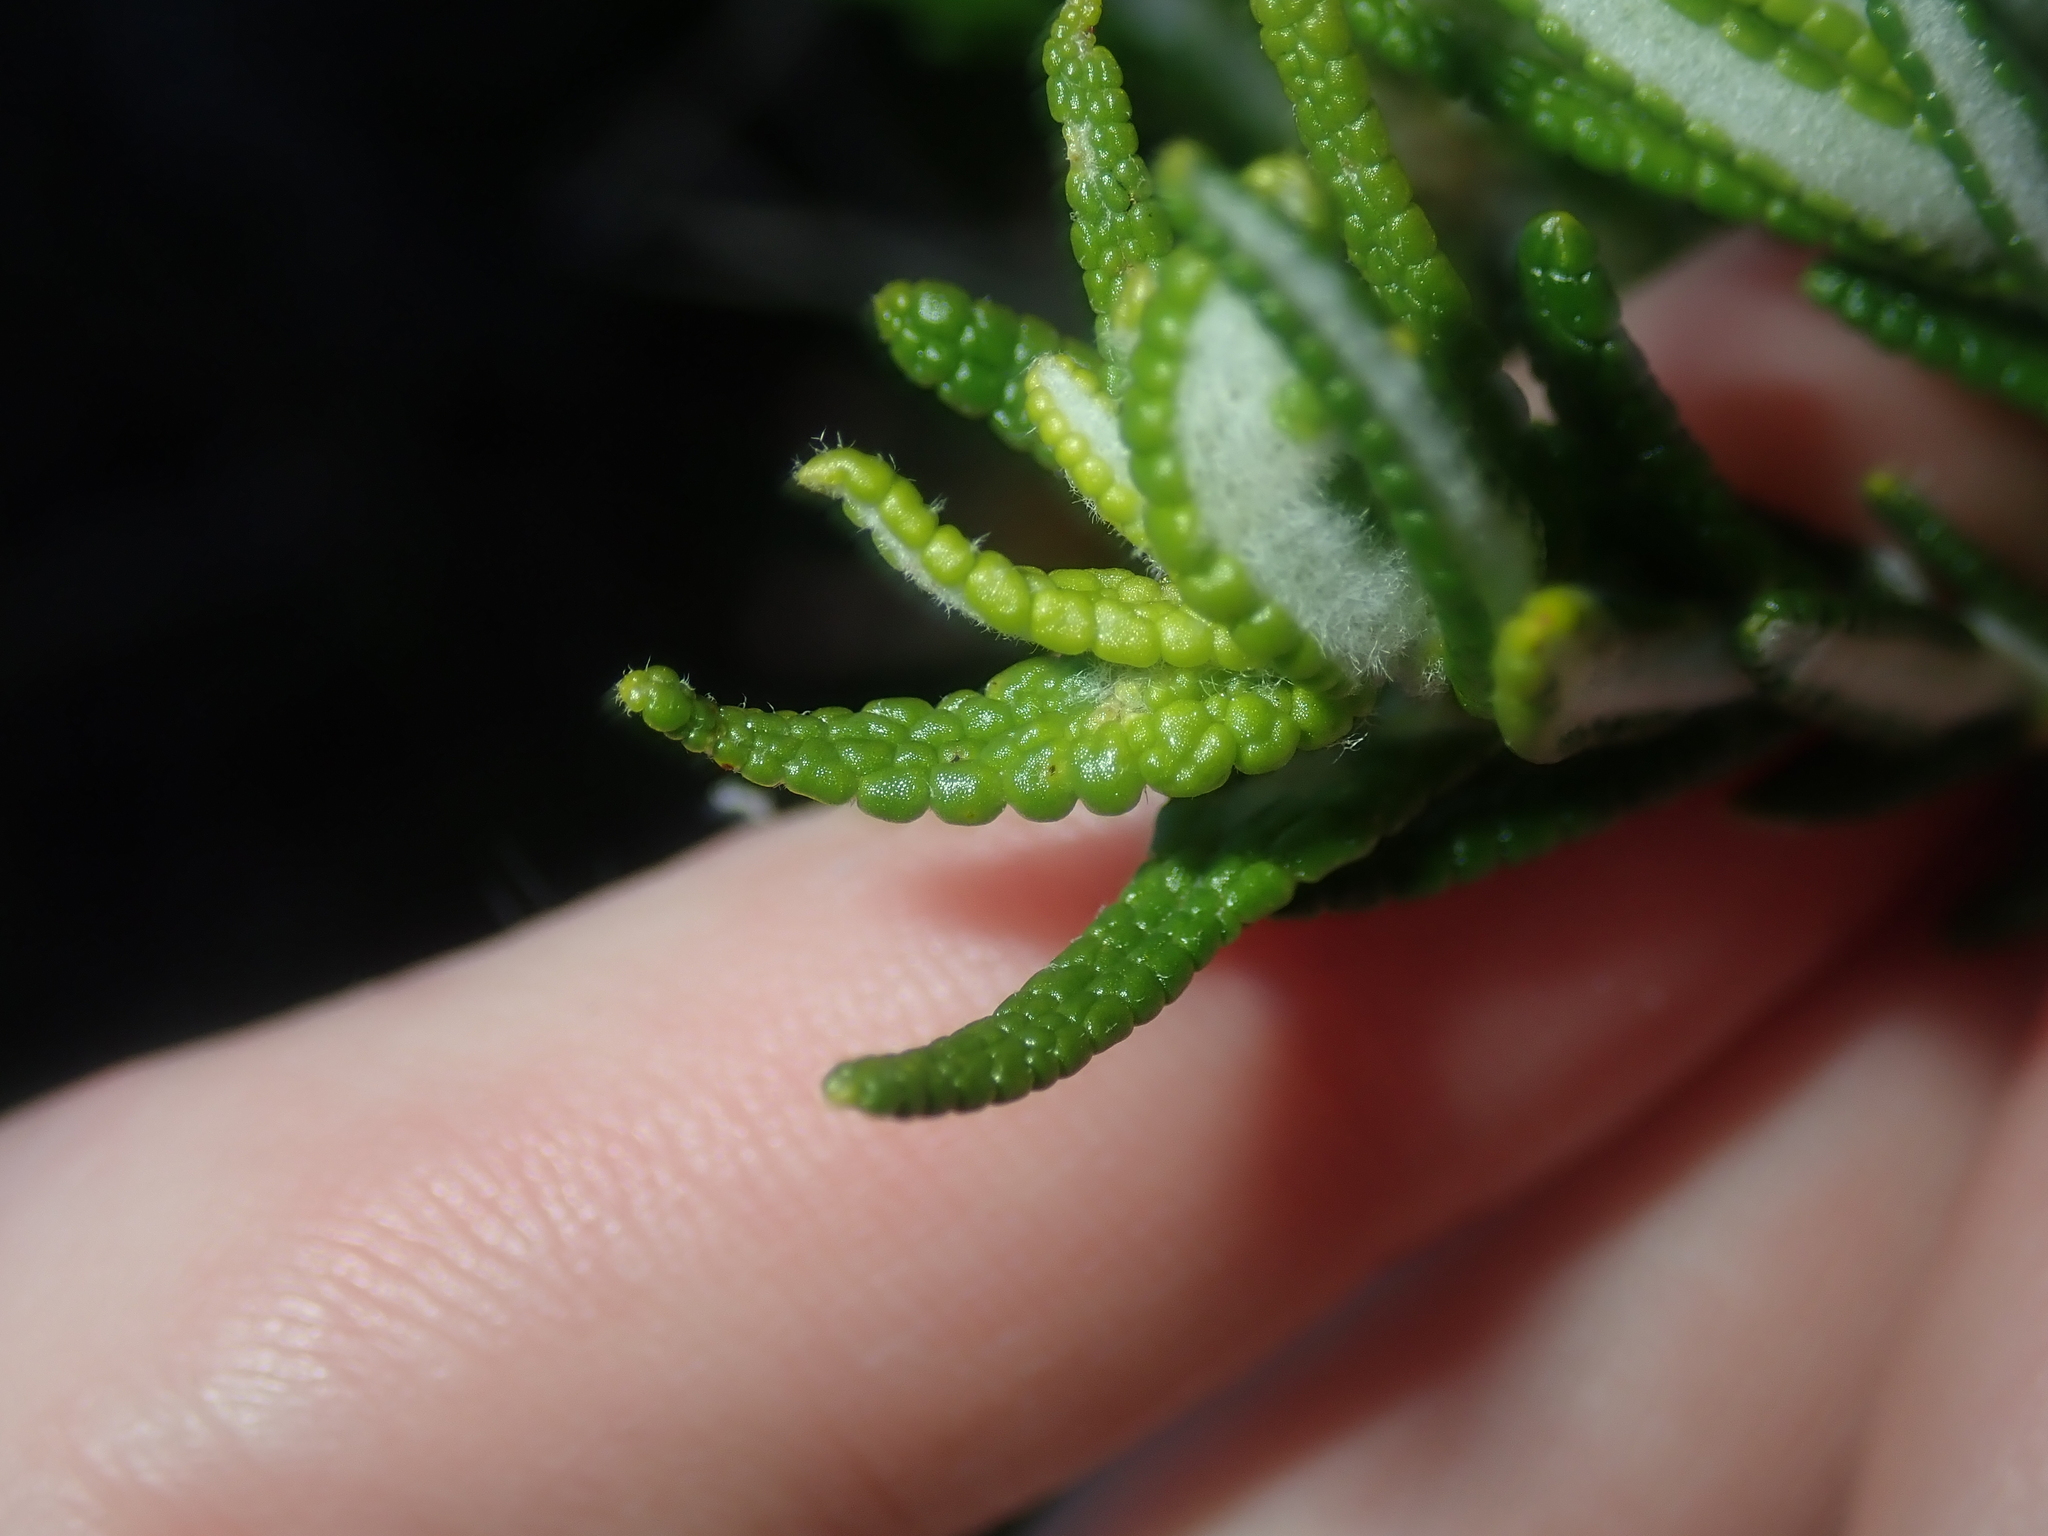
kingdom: Plantae
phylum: Tracheophyta
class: Magnoliopsida
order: Lamiales
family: Lamiaceae
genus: Hemiphora
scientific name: Hemiphora bartlingii
